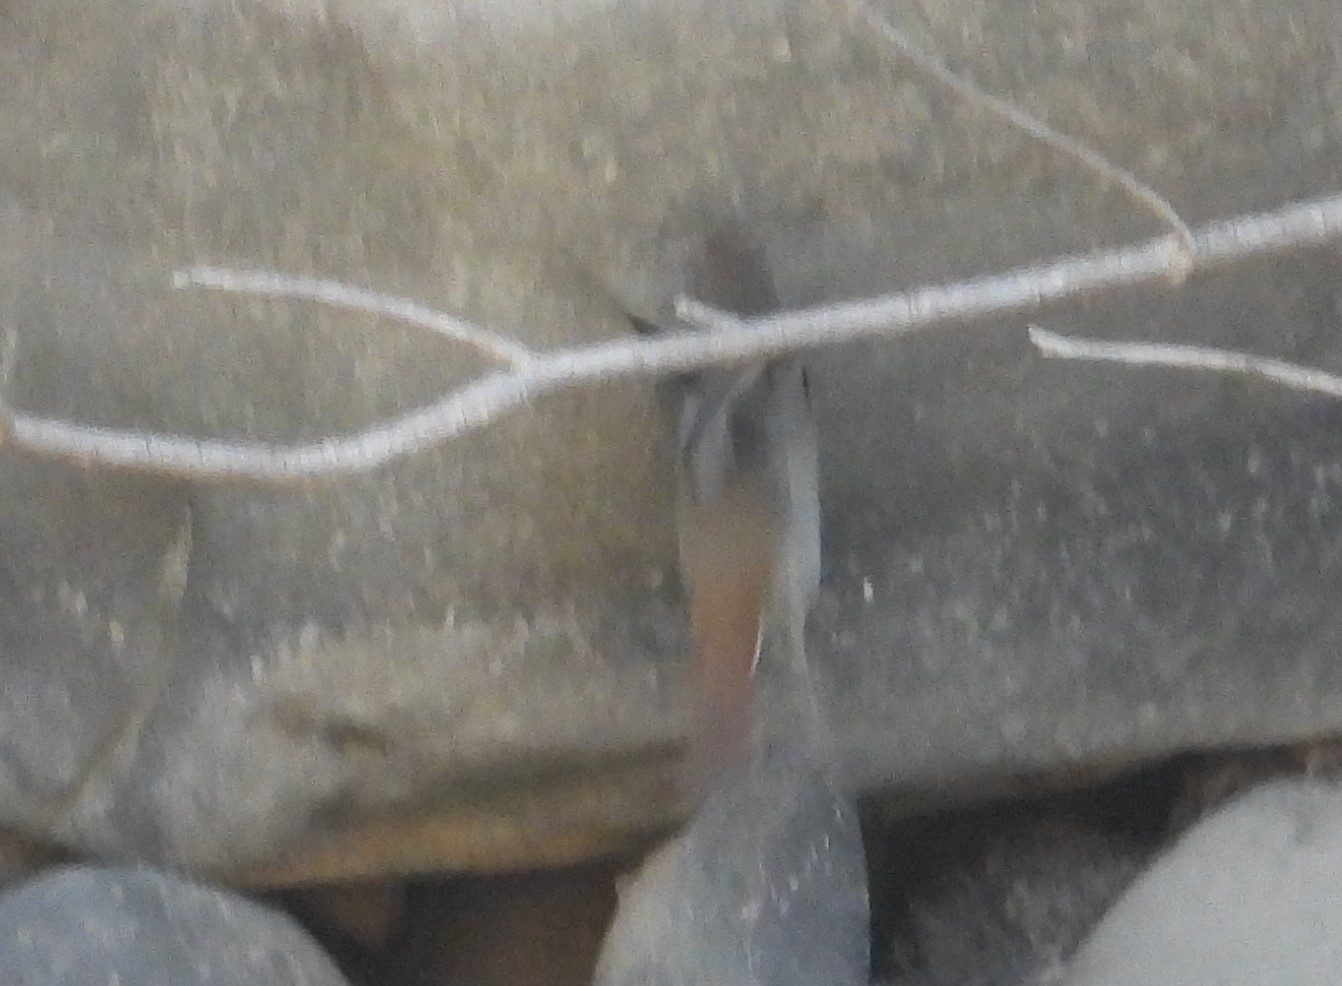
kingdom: Animalia
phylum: Chordata
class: Aves
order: Passeriformes
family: Turdidae
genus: Catharus
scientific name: Catharus guttatus
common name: Hermit thrush
